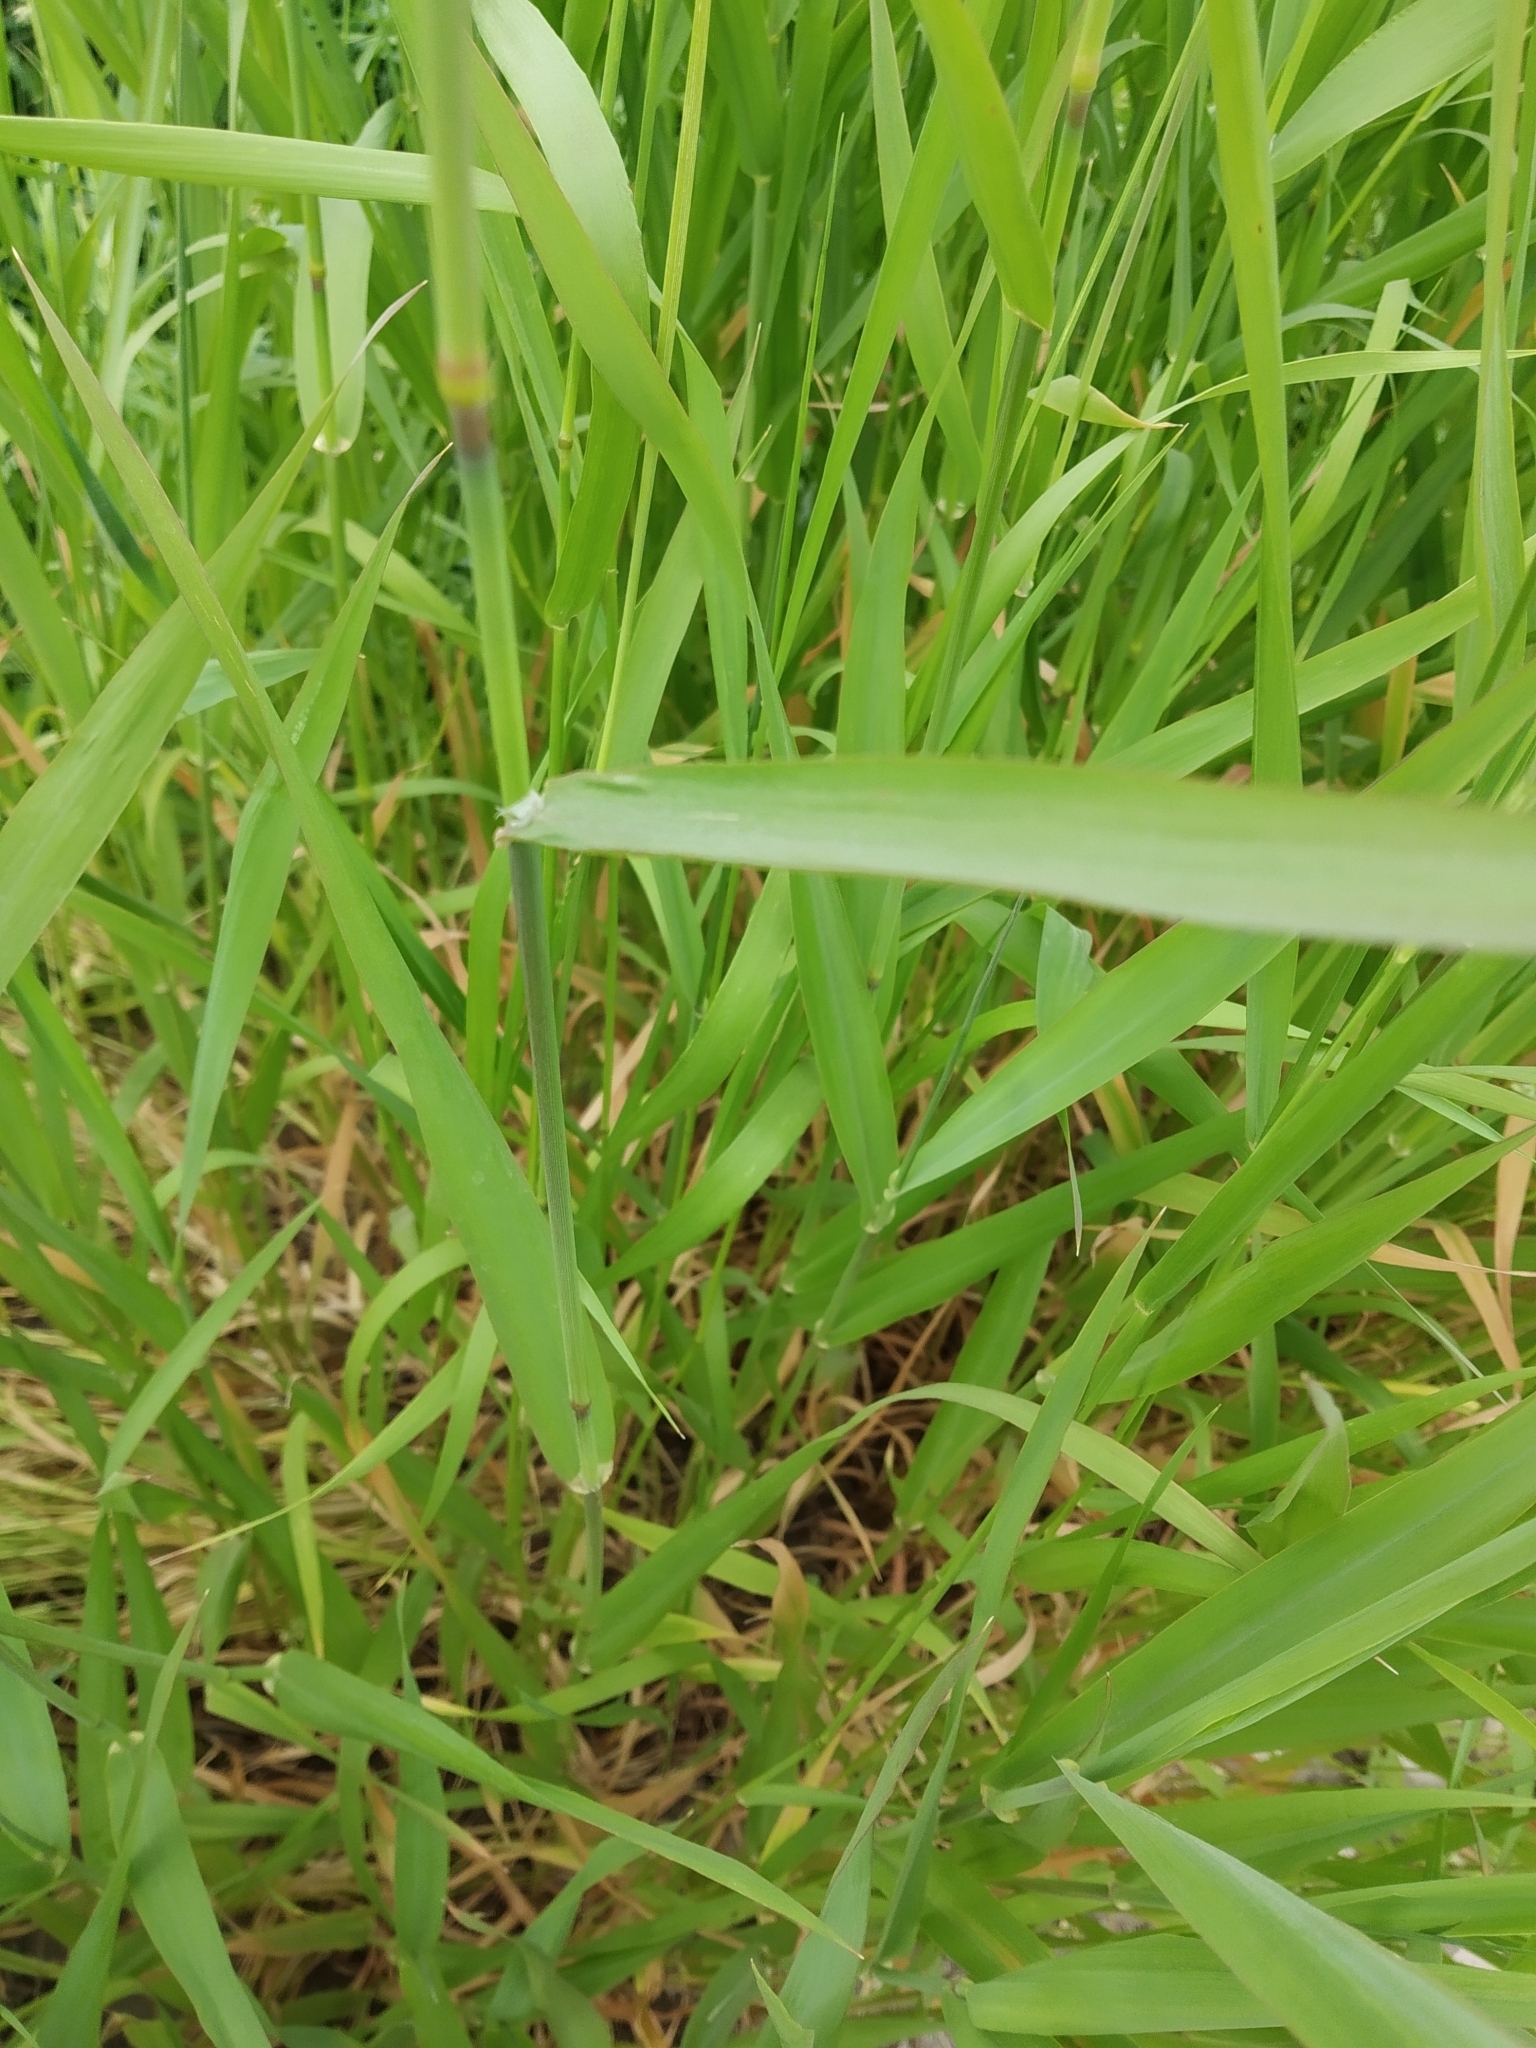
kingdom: Plantae
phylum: Tracheophyta
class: Liliopsida
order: Poales
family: Poaceae
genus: Calamagrostis
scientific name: Calamagrostis epigejos
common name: Wood small-reed
